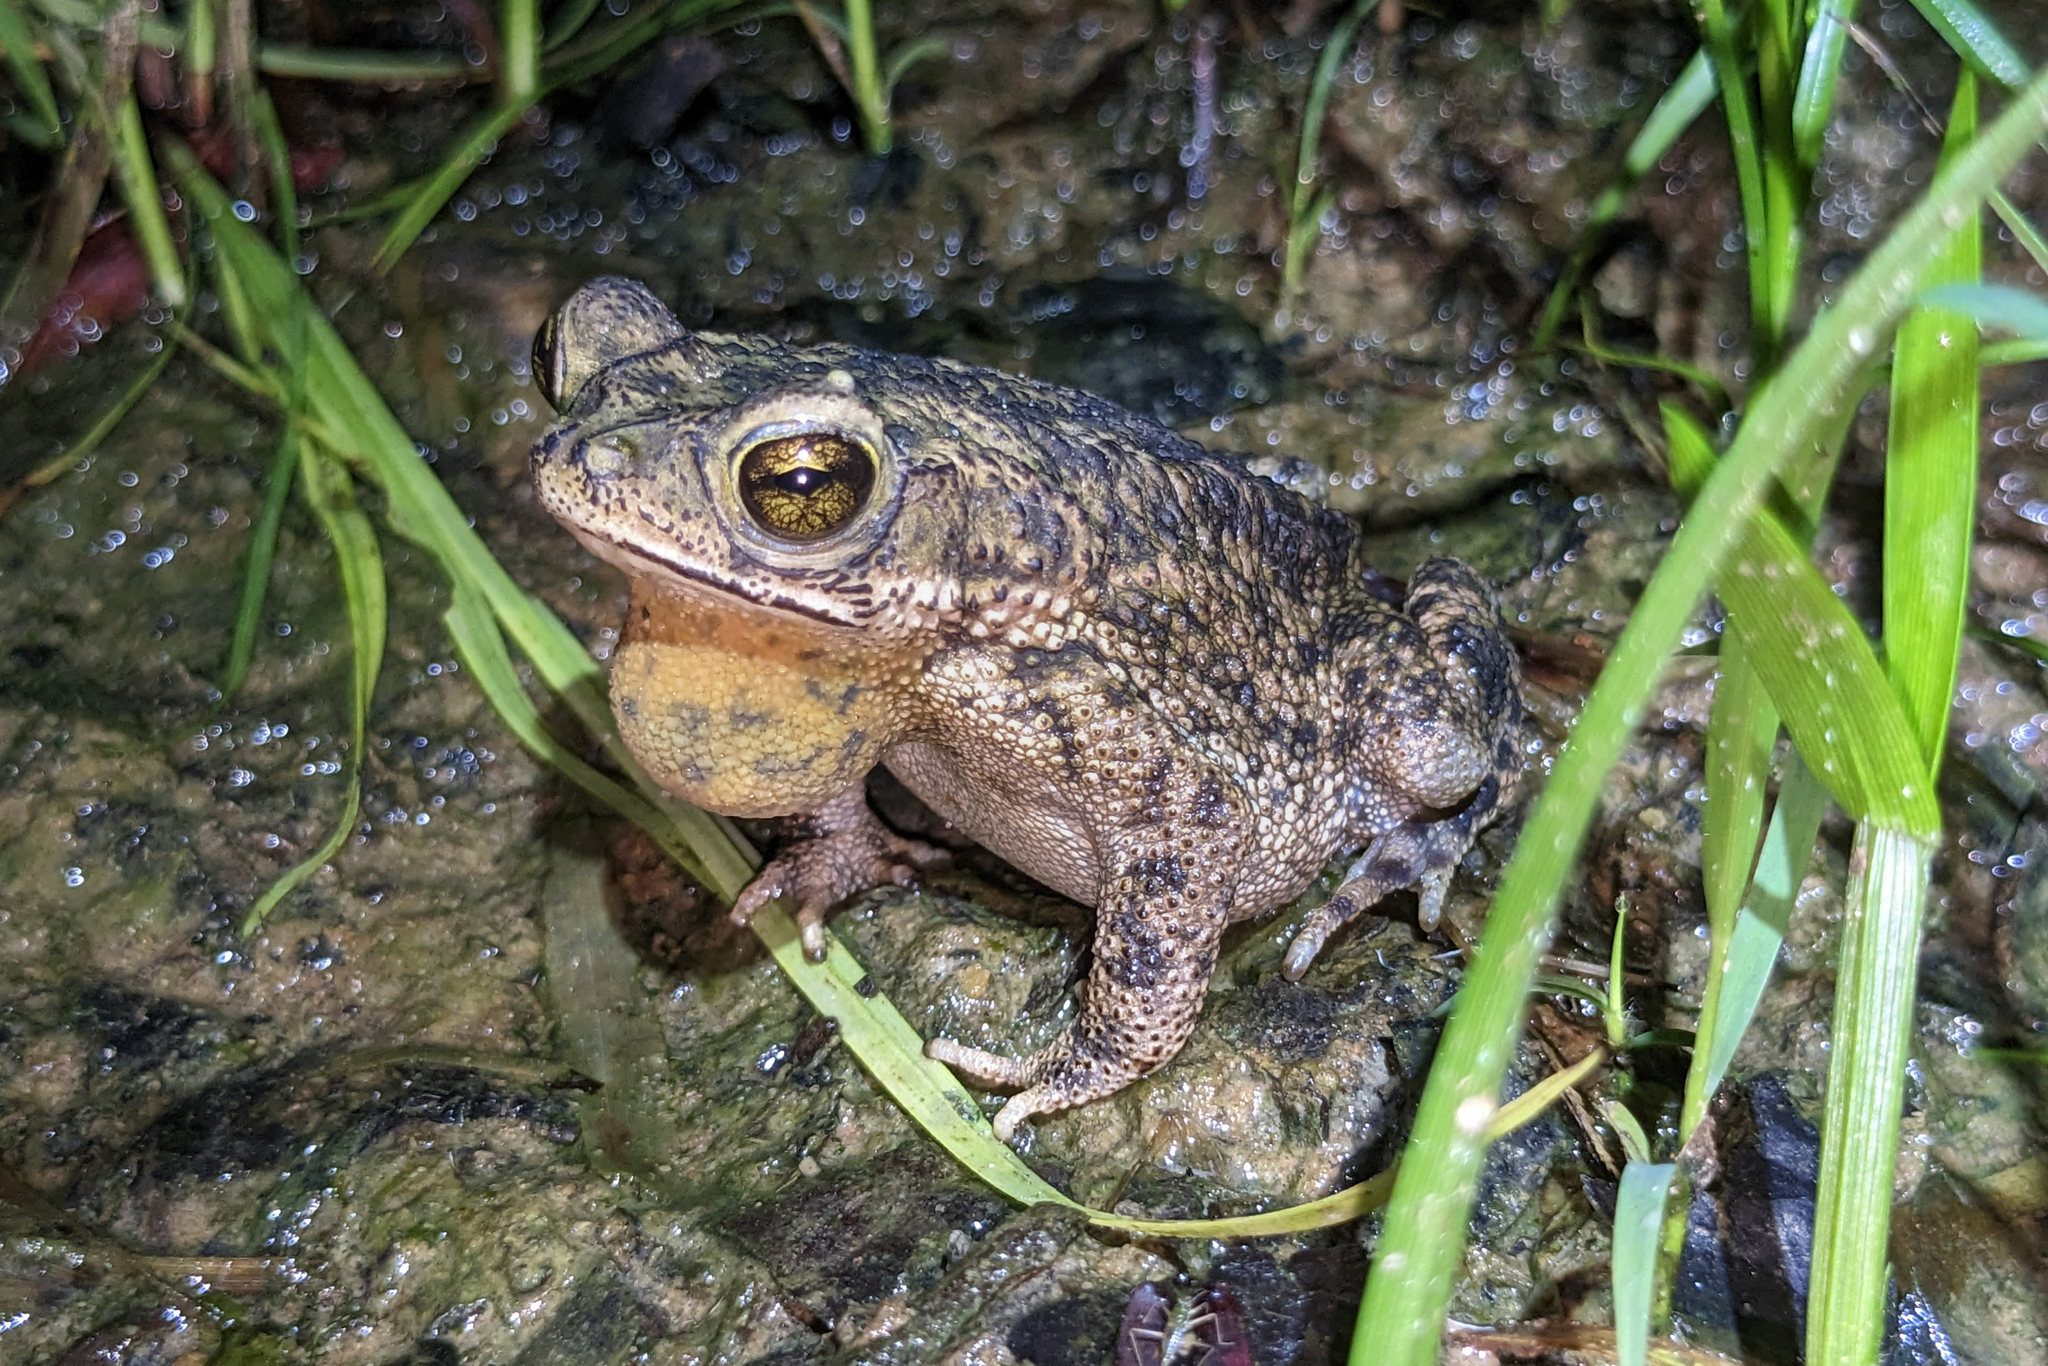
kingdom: Animalia
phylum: Chordata
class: Amphibia
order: Anura
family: Bufonidae
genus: Rhinella
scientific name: Rhinella merianae
